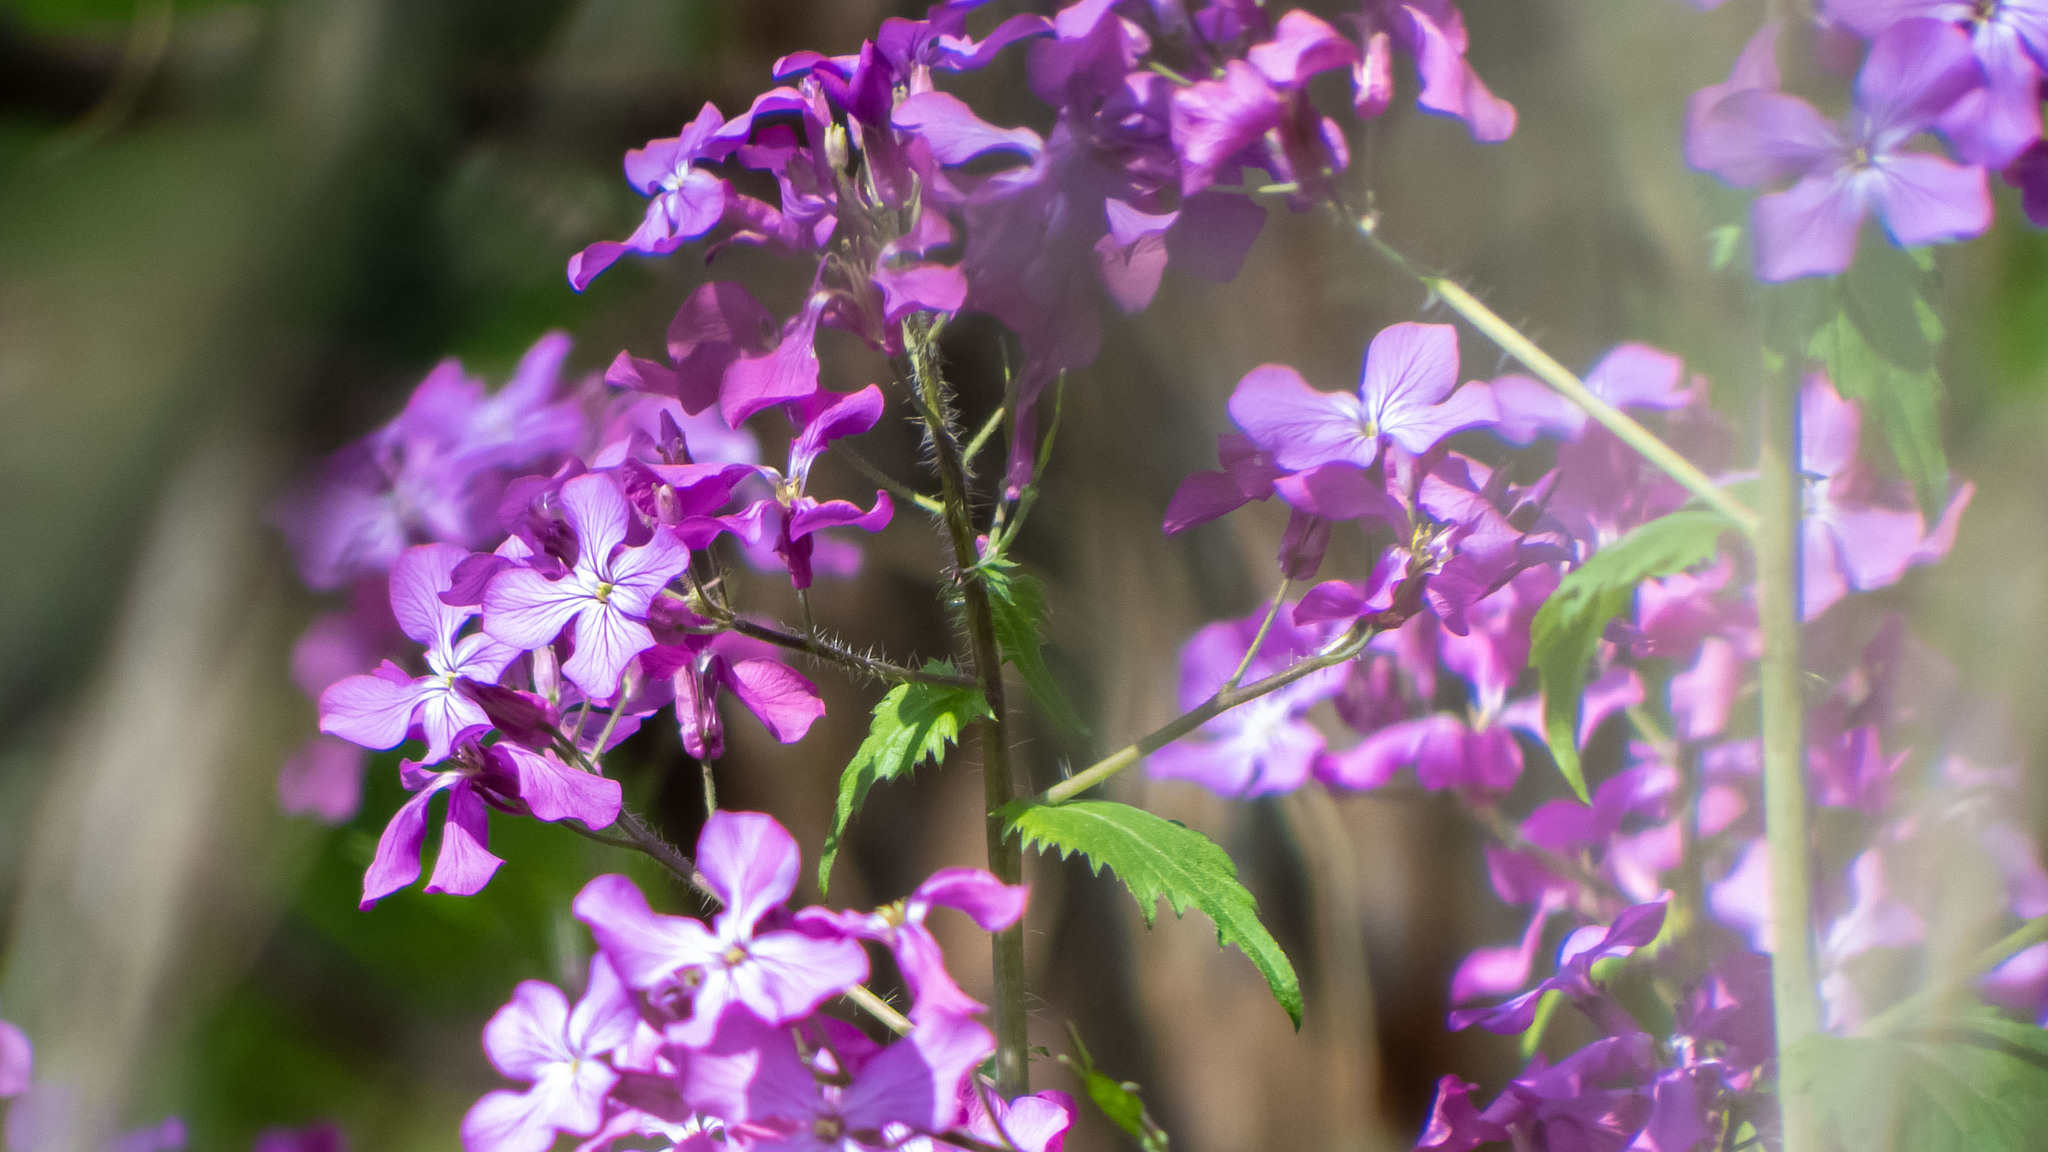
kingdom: Plantae
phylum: Tracheophyta
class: Magnoliopsida
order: Brassicales
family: Brassicaceae
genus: Lunaria
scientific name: Lunaria annua
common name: Honesty
